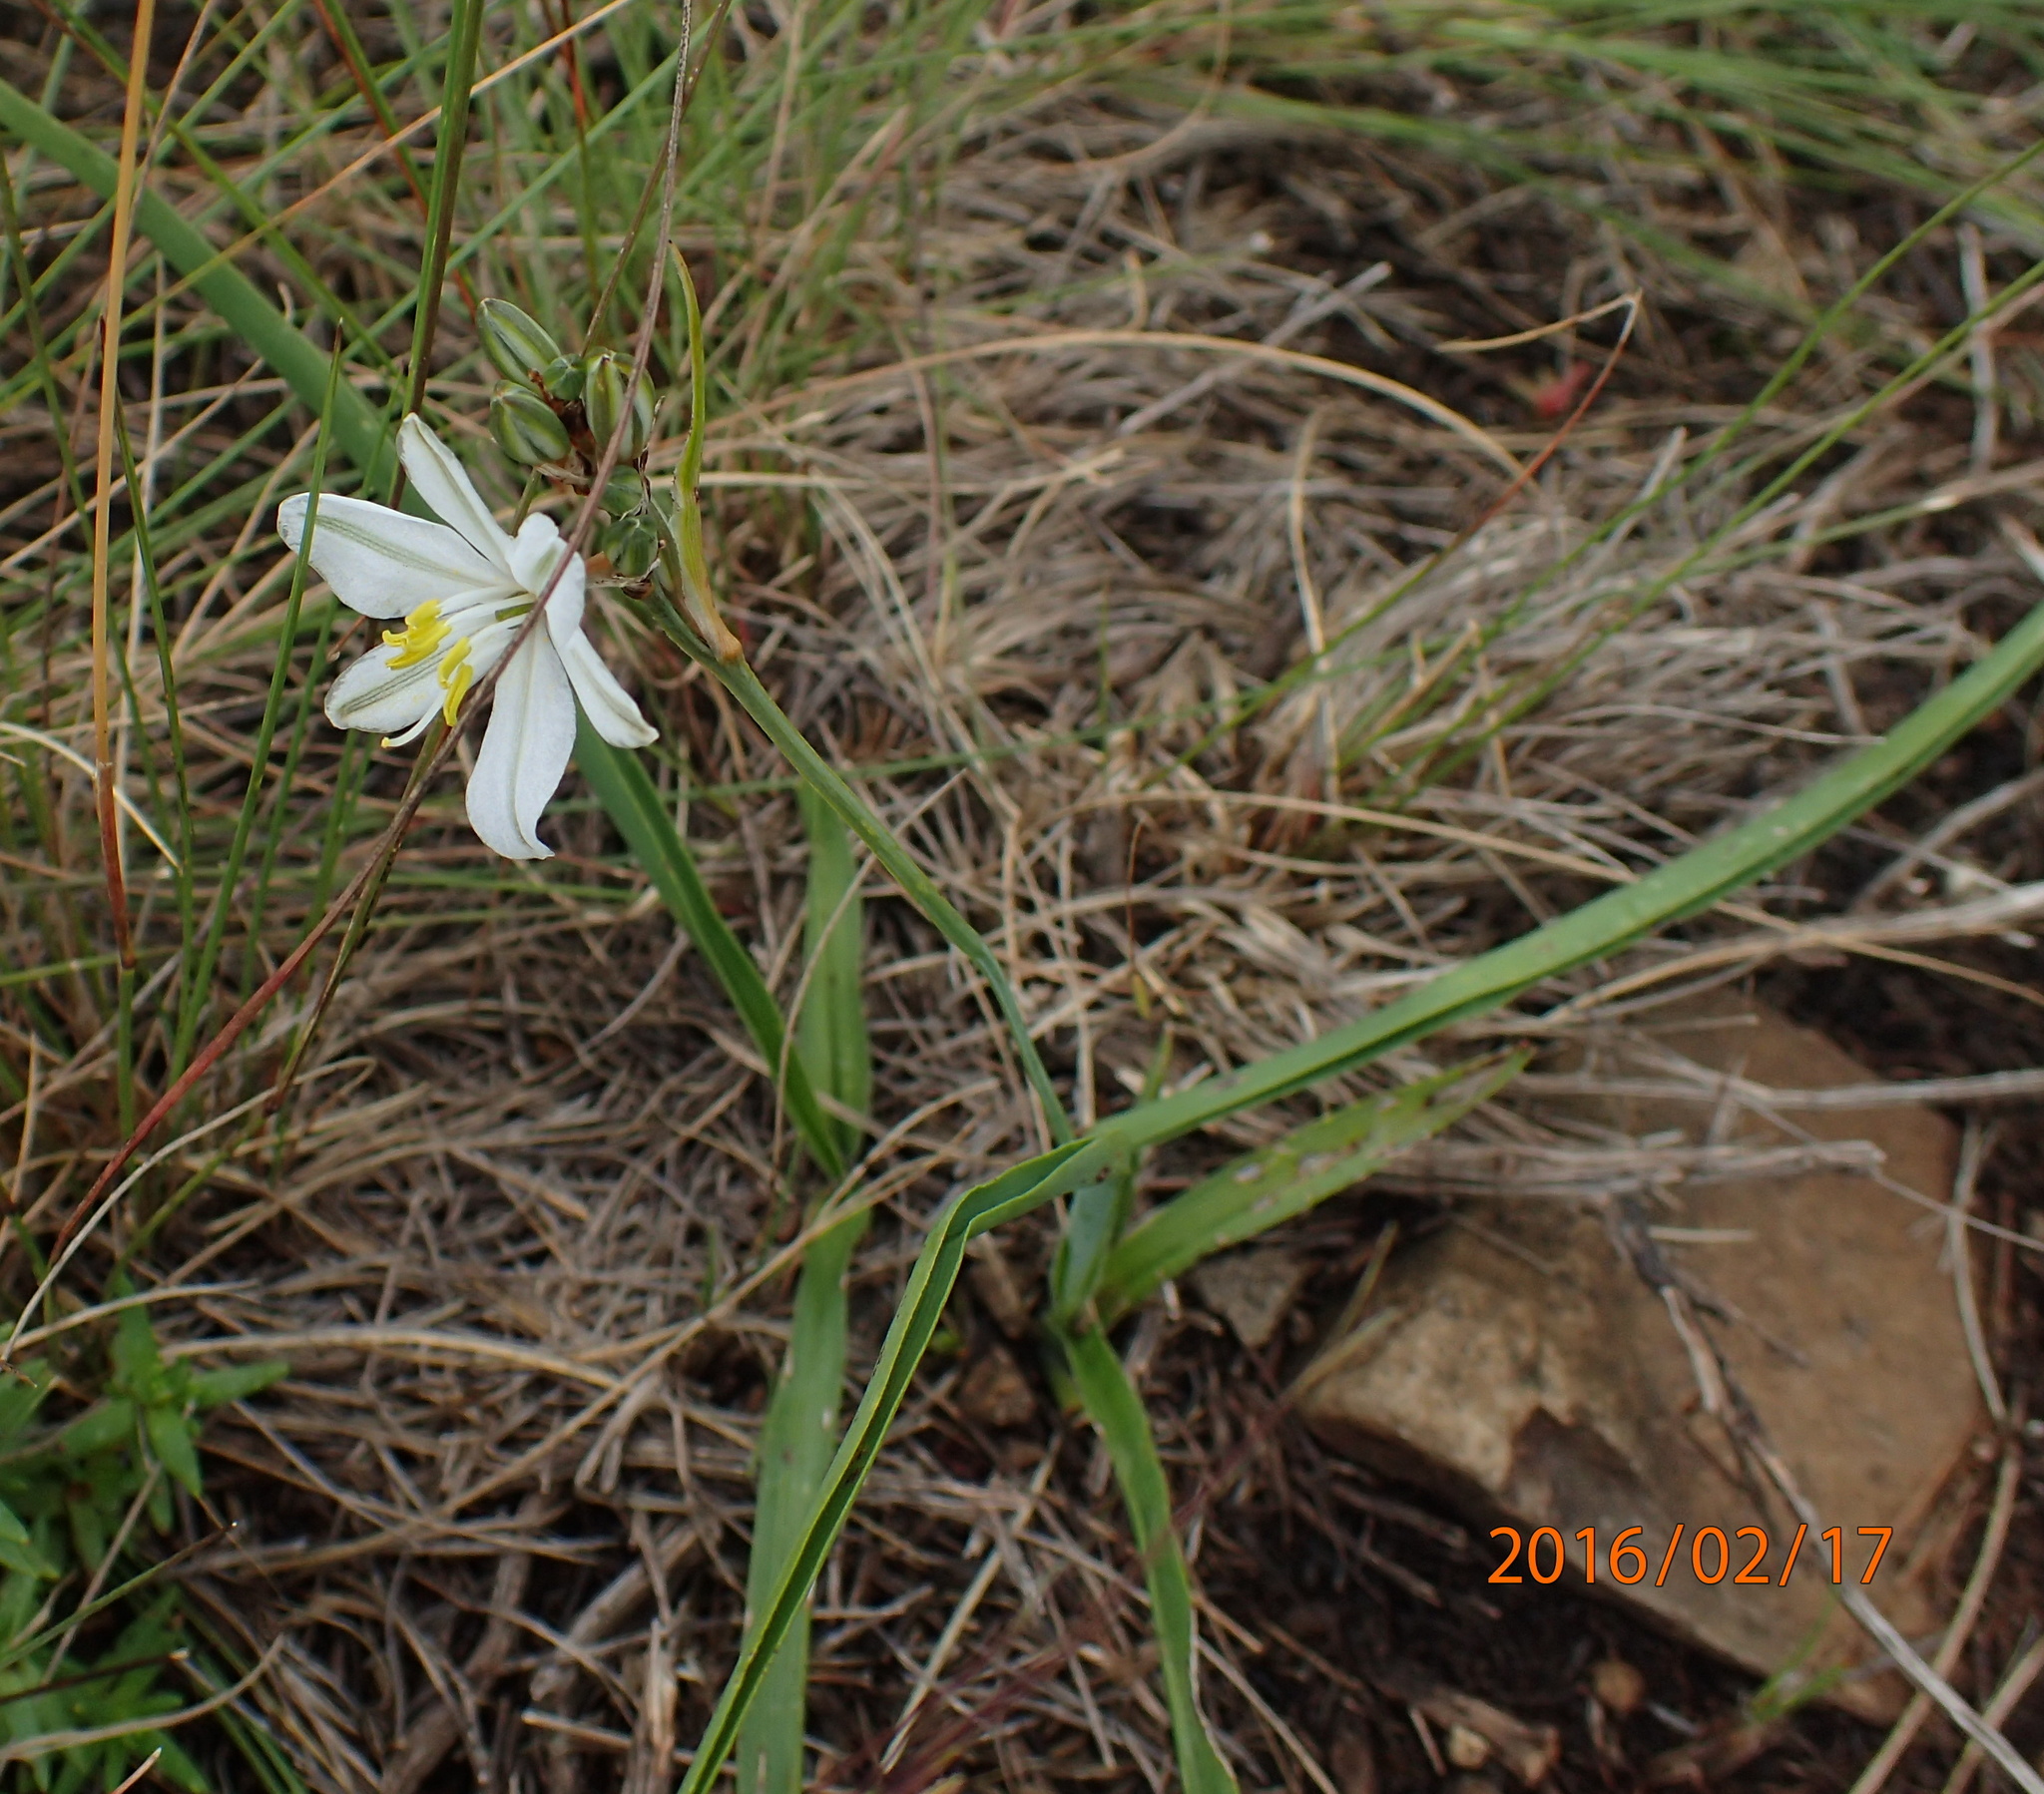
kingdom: Plantae
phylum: Tracheophyta
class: Liliopsida
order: Asparagales
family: Asparagaceae
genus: Chlorophytum
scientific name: Chlorophytum cooperi
